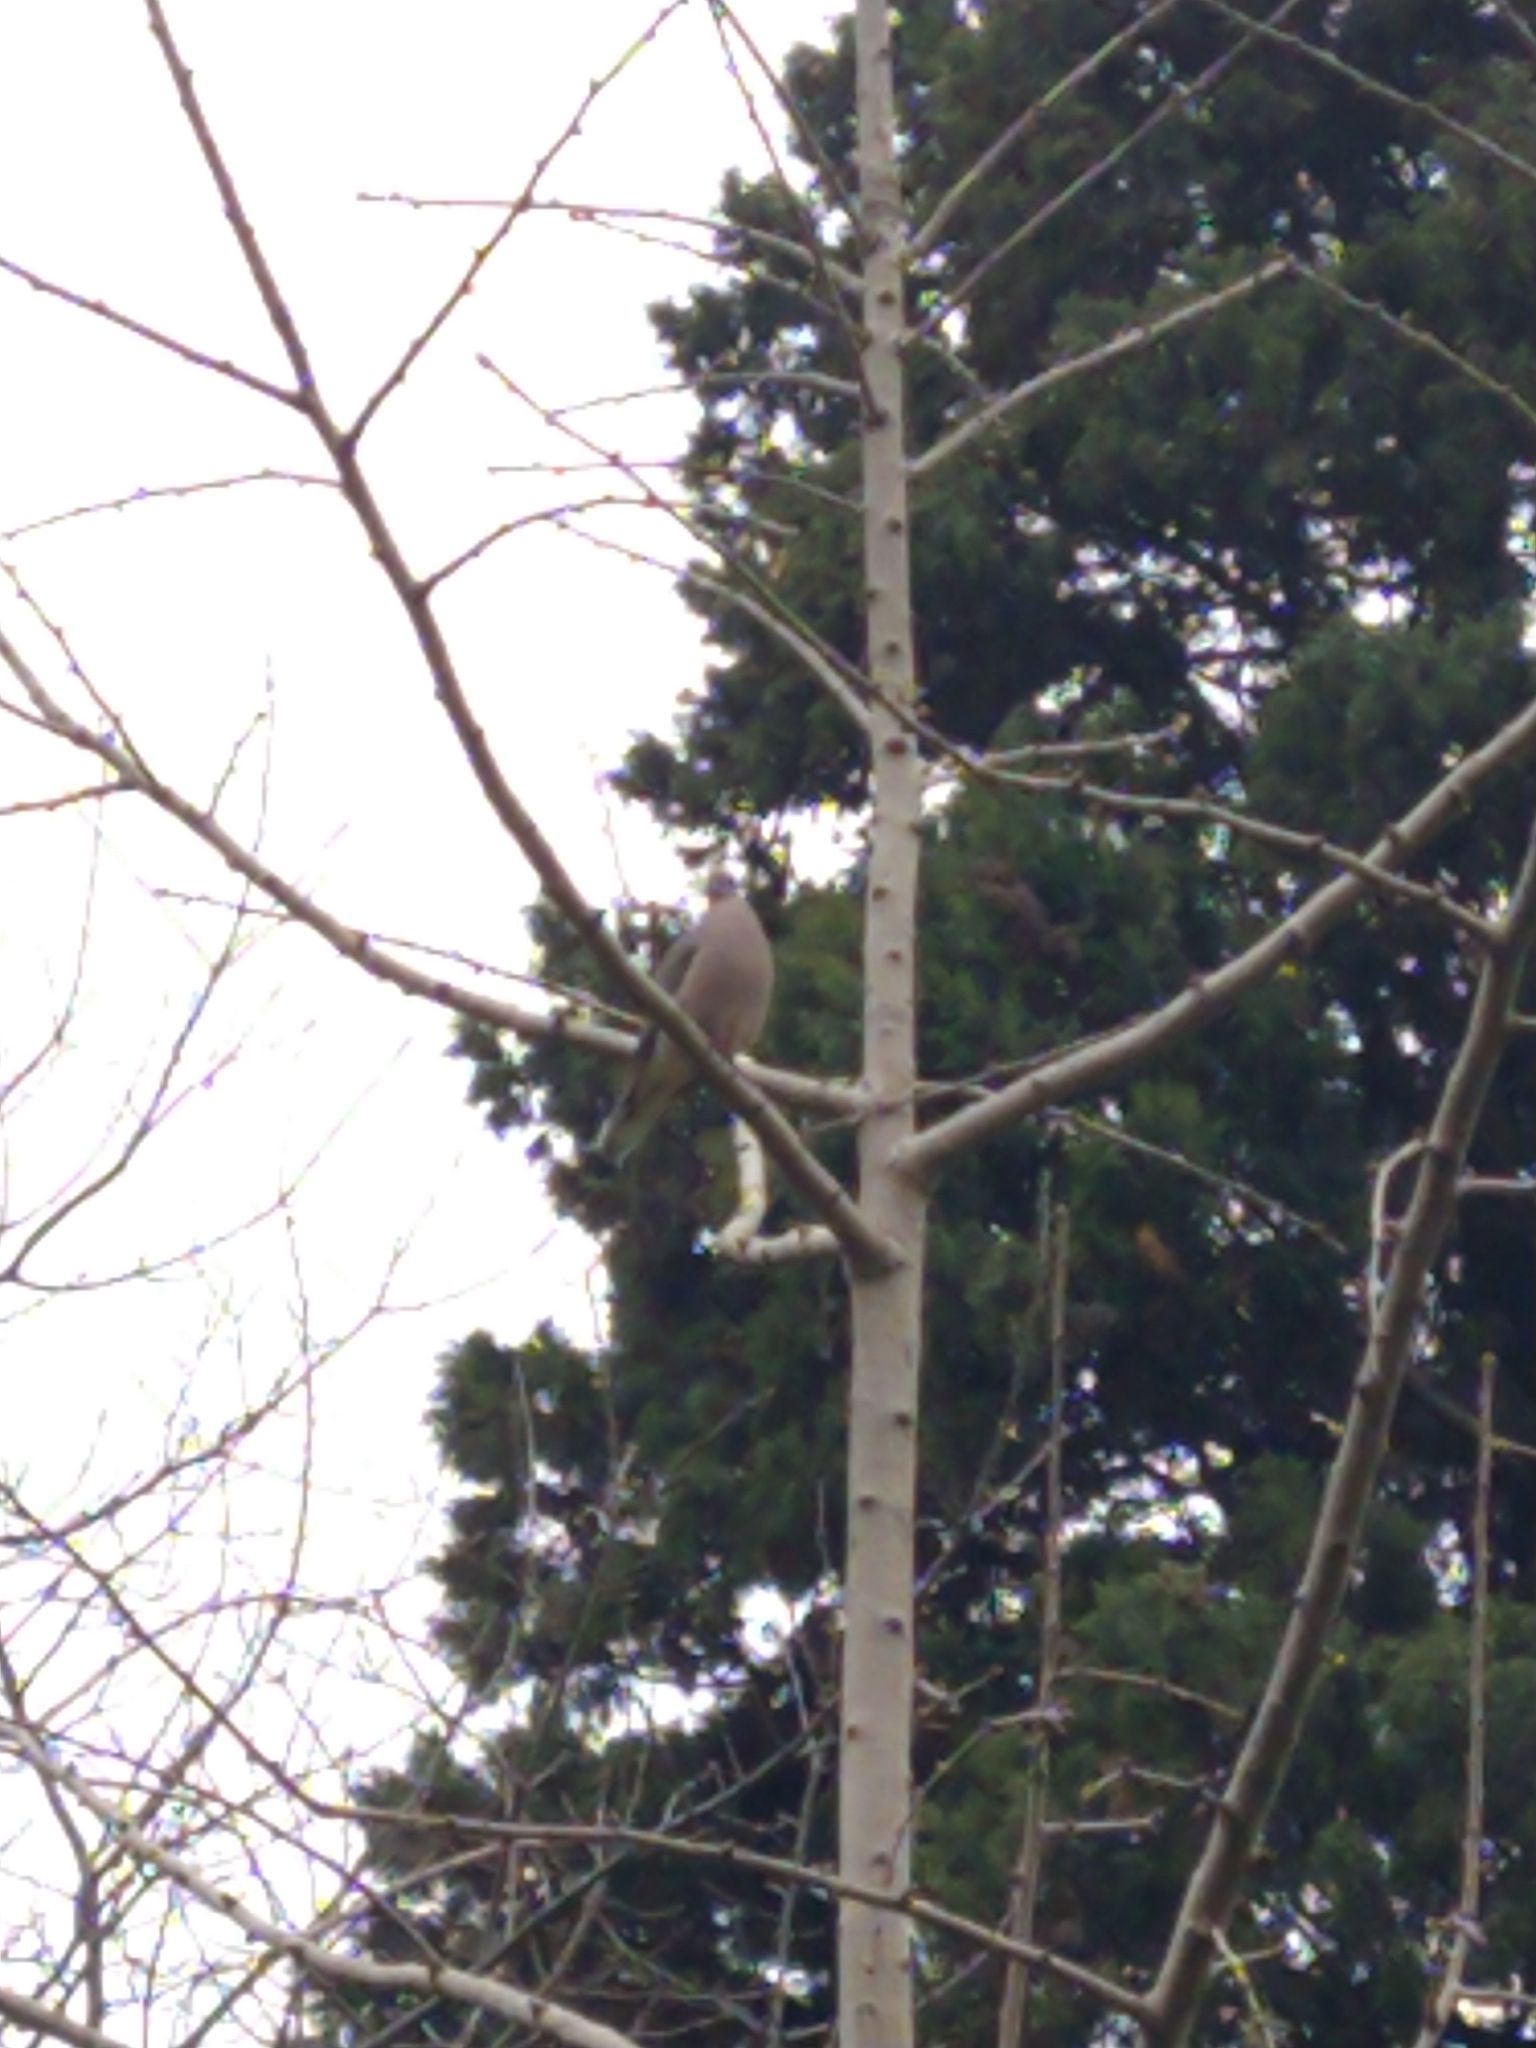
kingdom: Animalia
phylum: Chordata
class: Aves
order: Columbiformes
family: Columbidae
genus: Zenaida
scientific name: Zenaida auriculata
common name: Eared dove
